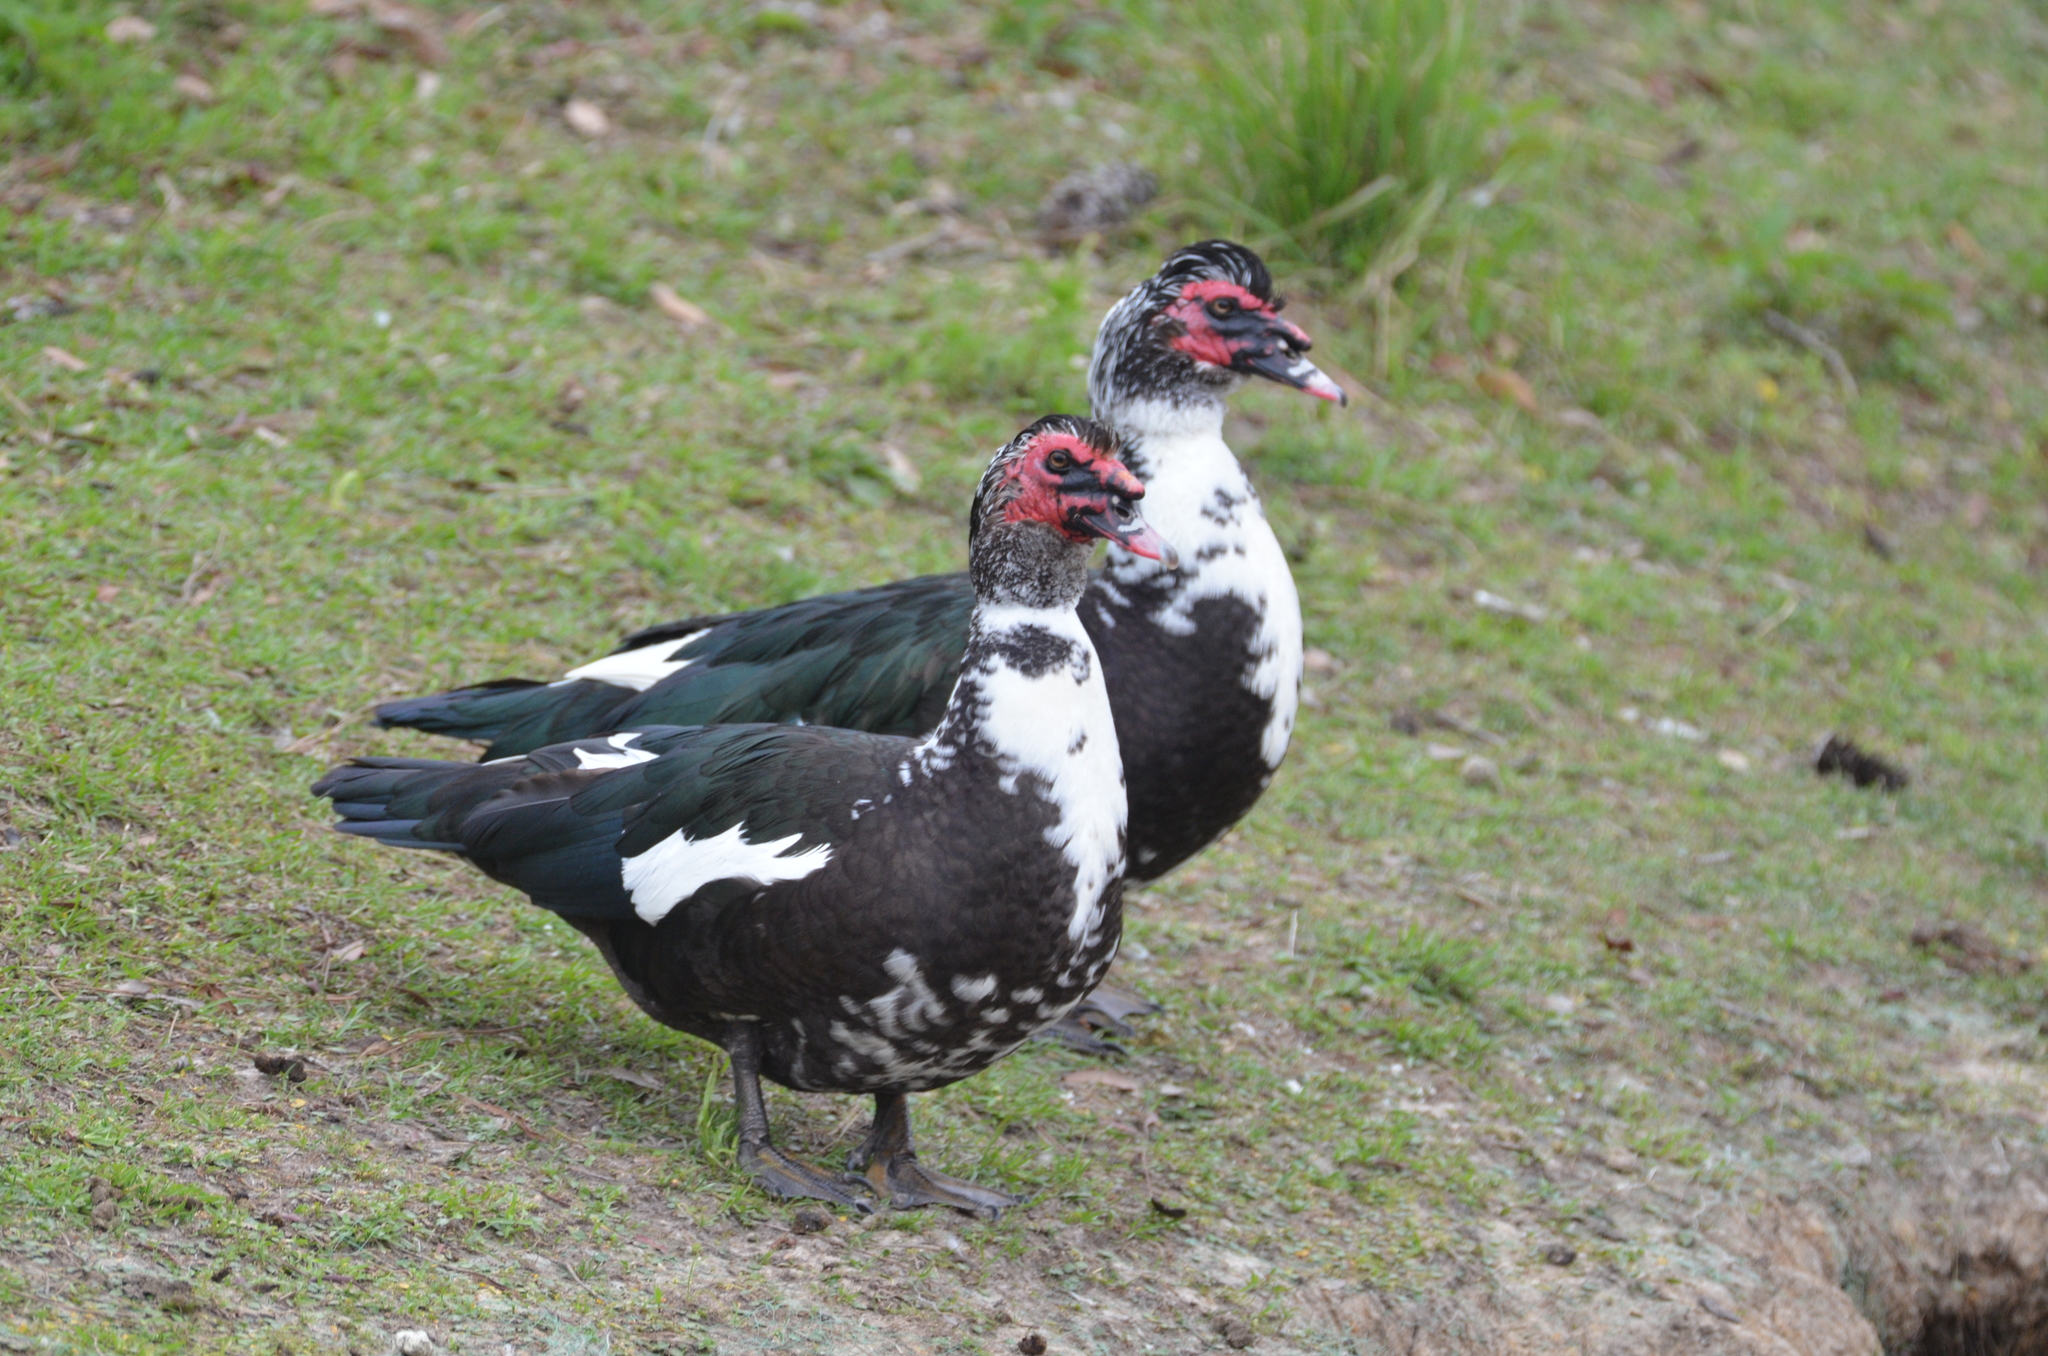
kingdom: Animalia
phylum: Chordata
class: Aves
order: Anseriformes
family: Anatidae
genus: Cairina
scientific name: Cairina moschata
